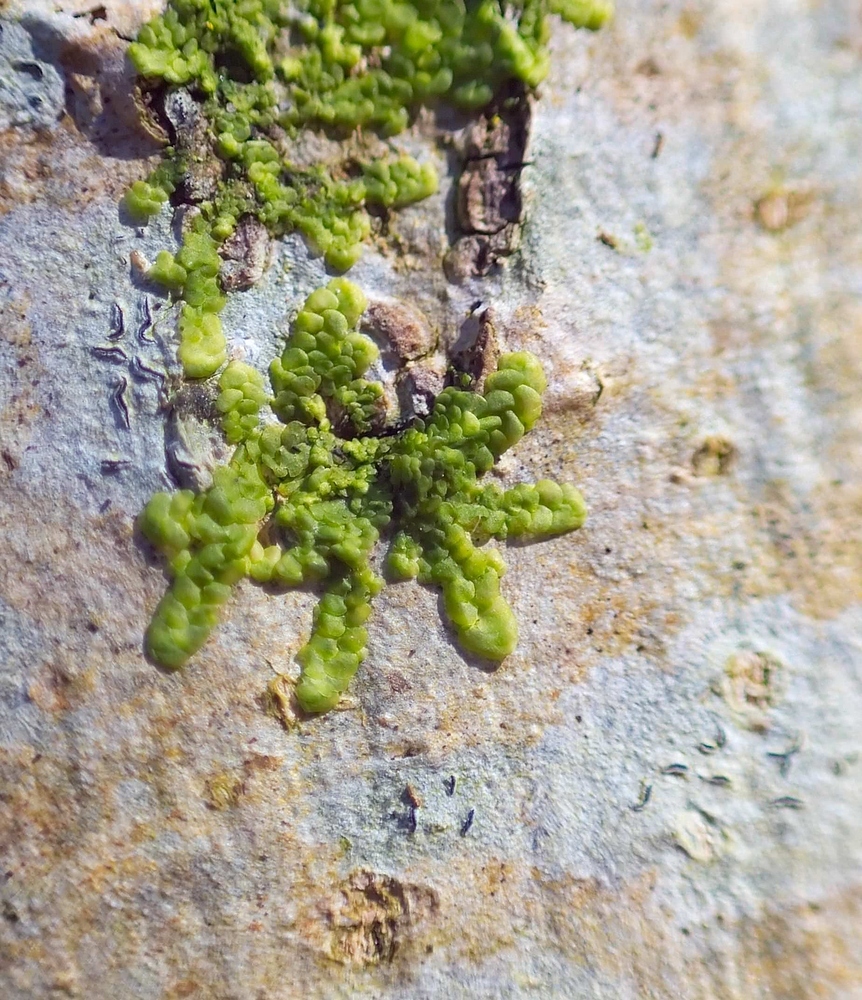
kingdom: Plantae
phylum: Marchantiophyta
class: Jungermanniopsida
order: Porellales
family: Radulaceae
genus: Radula
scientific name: Radula complanata
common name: Flat-leaved scalewort
